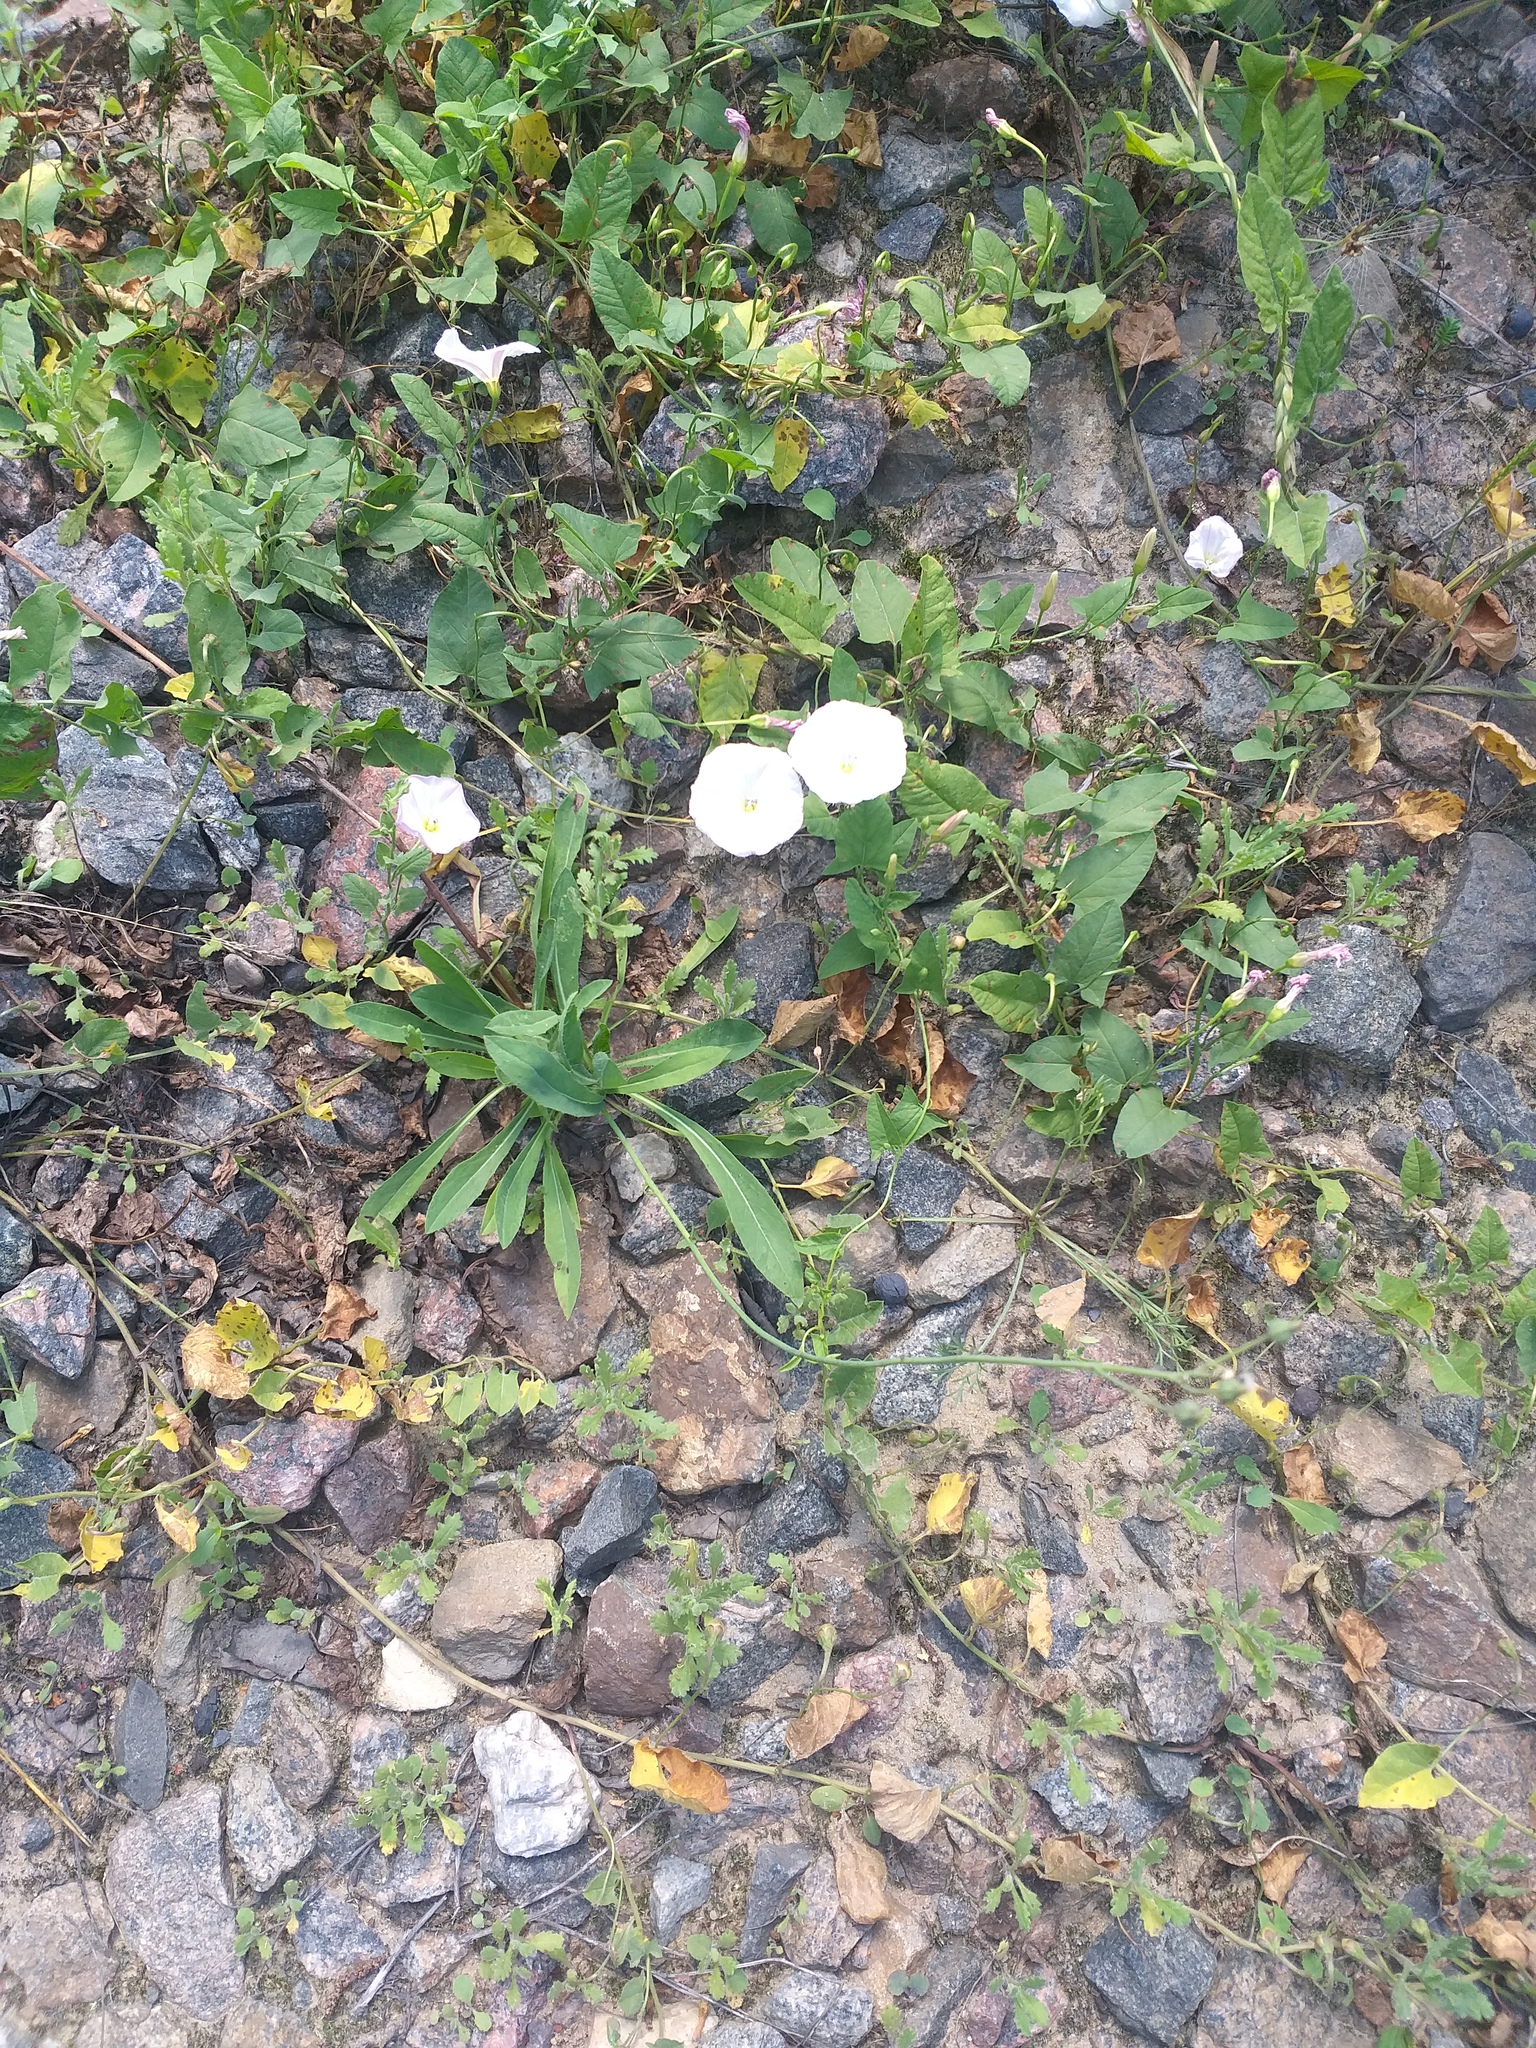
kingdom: Plantae
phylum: Tracheophyta
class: Magnoliopsida
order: Solanales
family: Convolvulaceae
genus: Convolvulus
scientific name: Convolvulus arvensis
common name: Field bindweed
